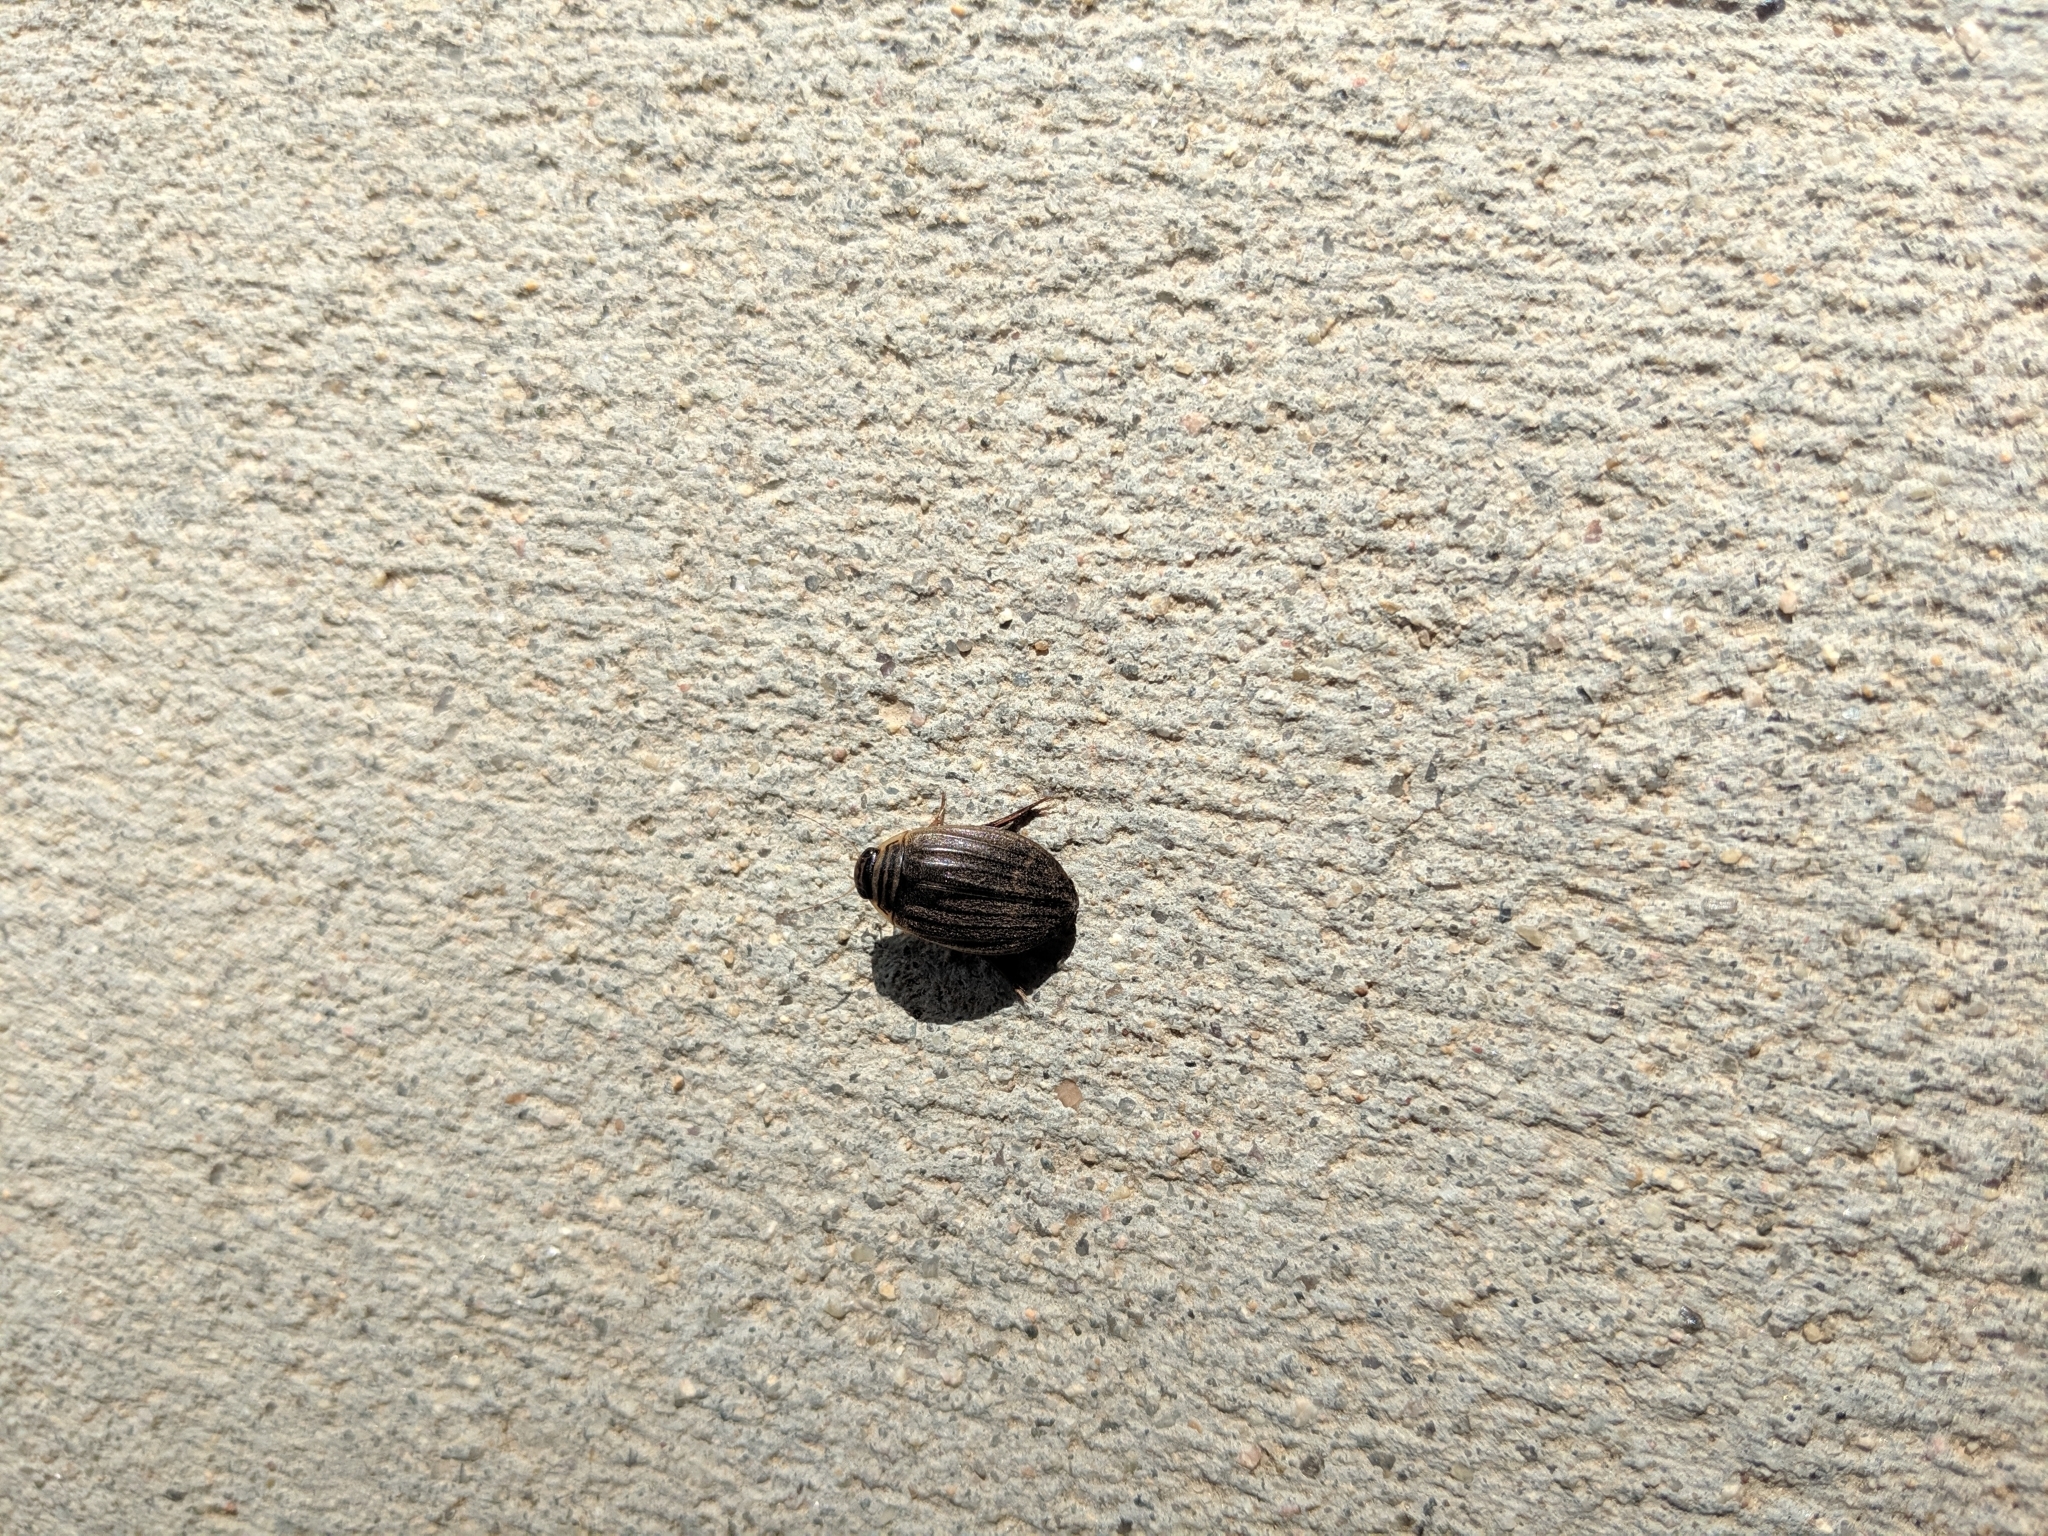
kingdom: Animalia
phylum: Arthropoda
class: Insecta
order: Coleoptera
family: Dytiscidae
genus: Acilius
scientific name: Acilius abbreviatus
